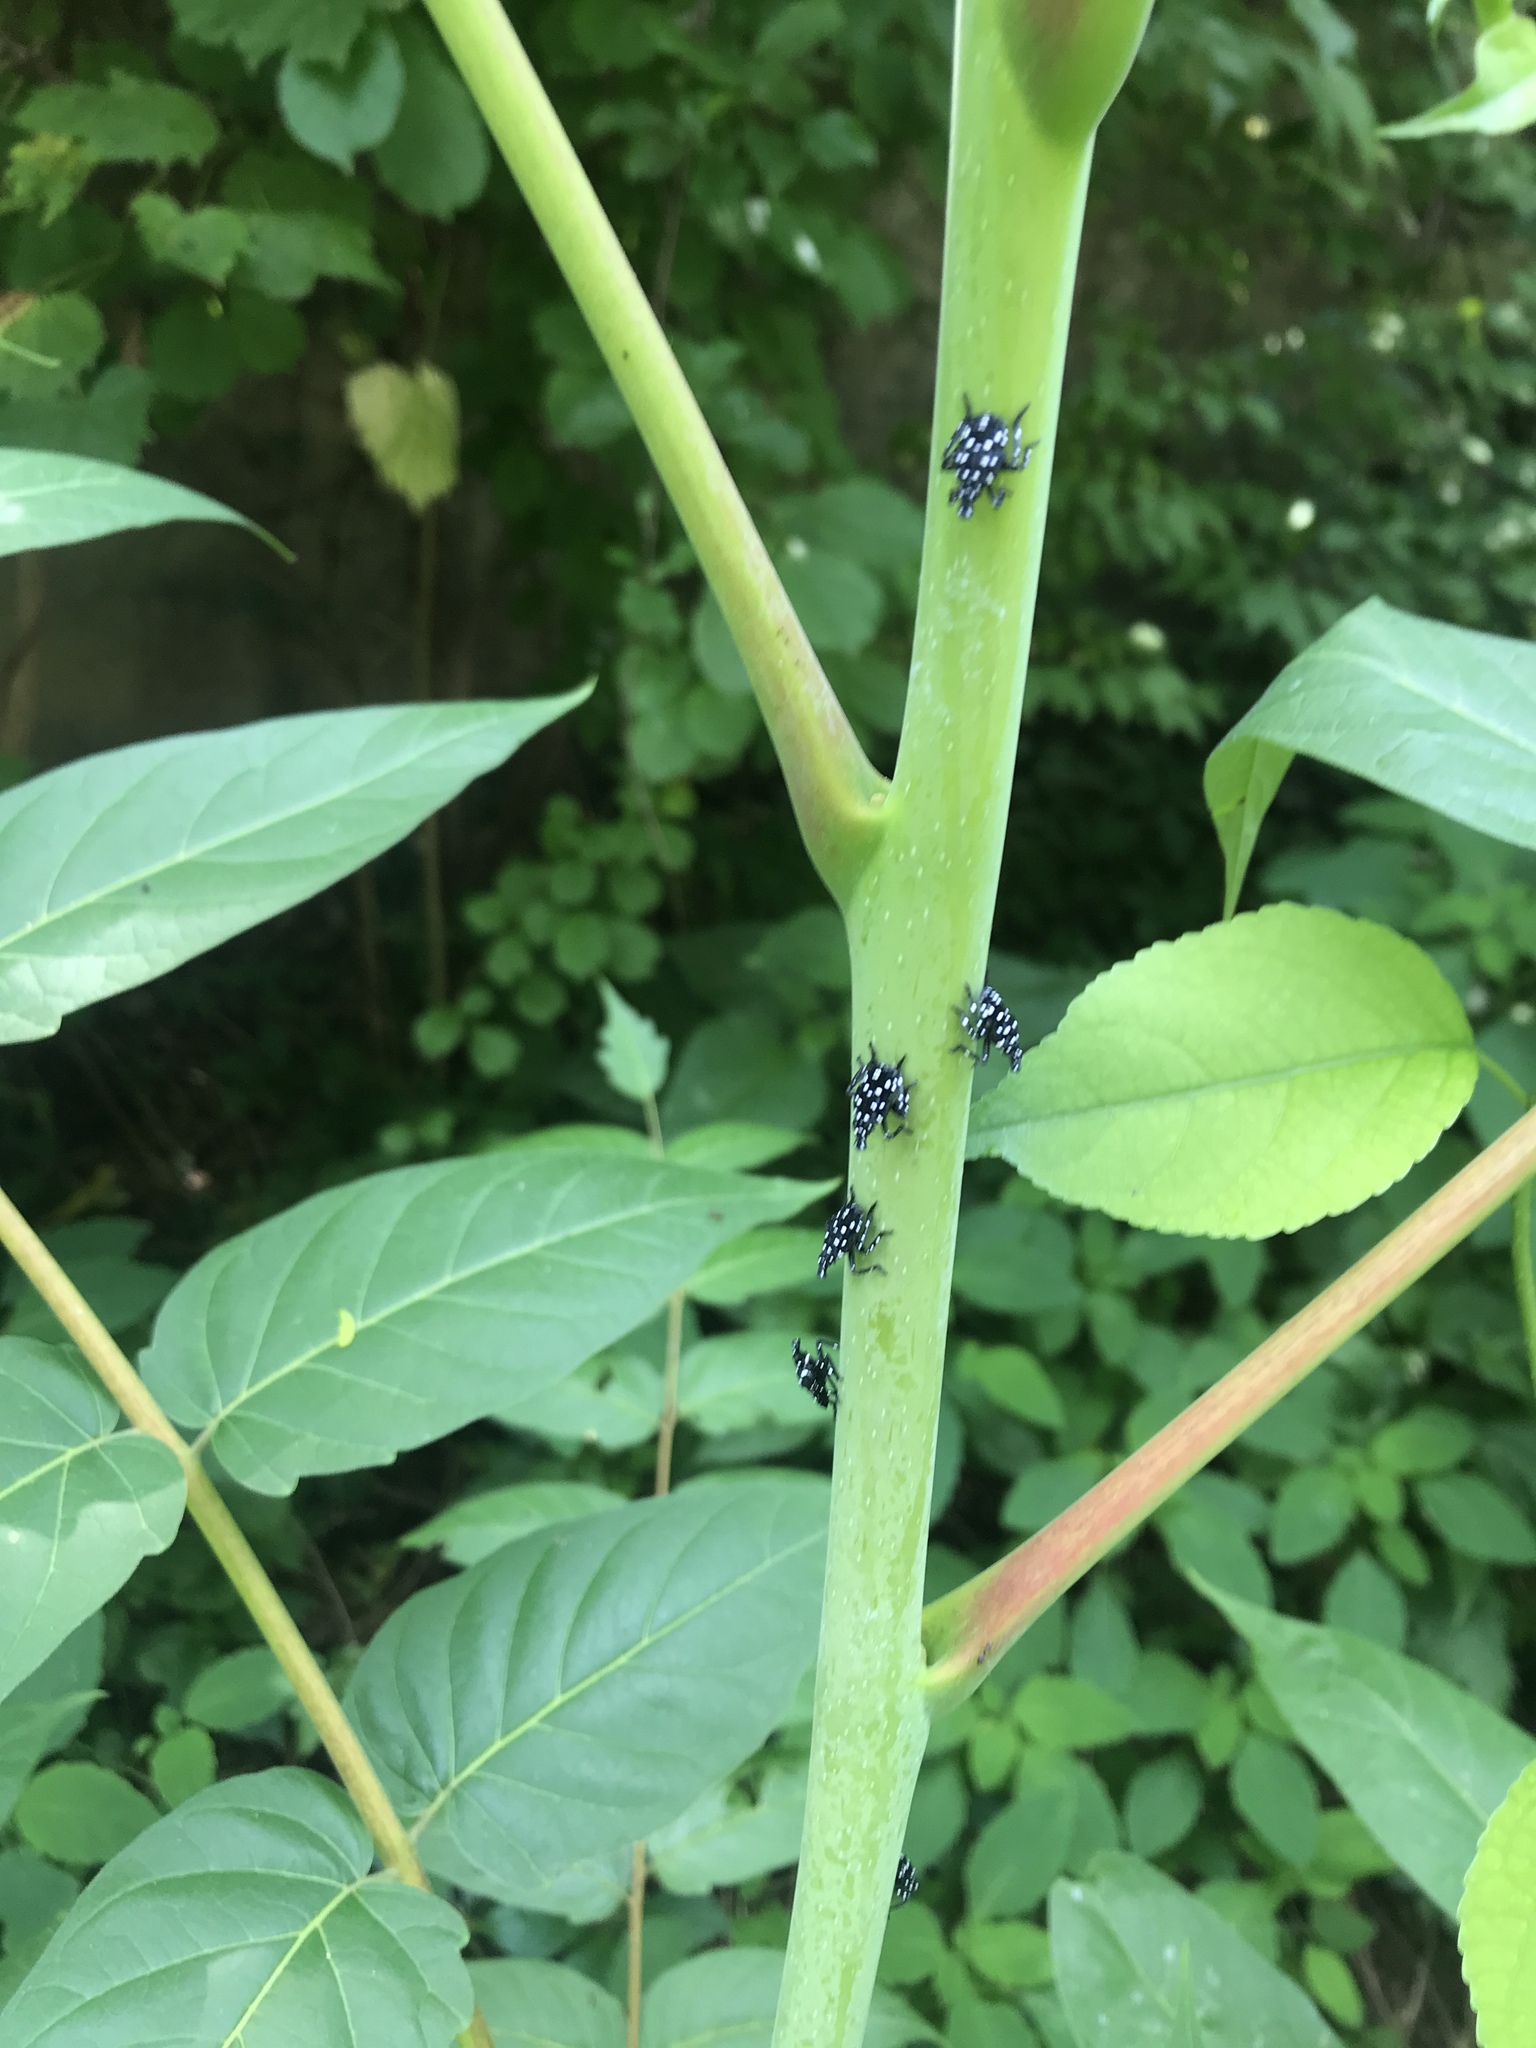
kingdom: Animalia
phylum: Arthropoda
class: Insecta
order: Hemiptera
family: Fulgoridae
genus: Lycorma
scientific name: Lycorma delicatula
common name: Spotted lanternfly
